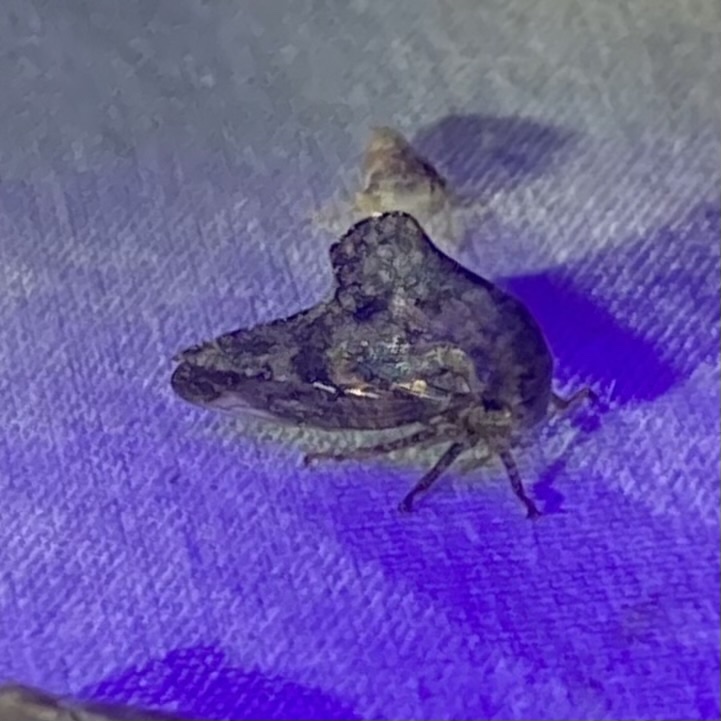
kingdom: Animalia
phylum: Arthropoda
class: Insecta
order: Hemiptera
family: Membracidae
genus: Telamona
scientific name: Telamona spreta
